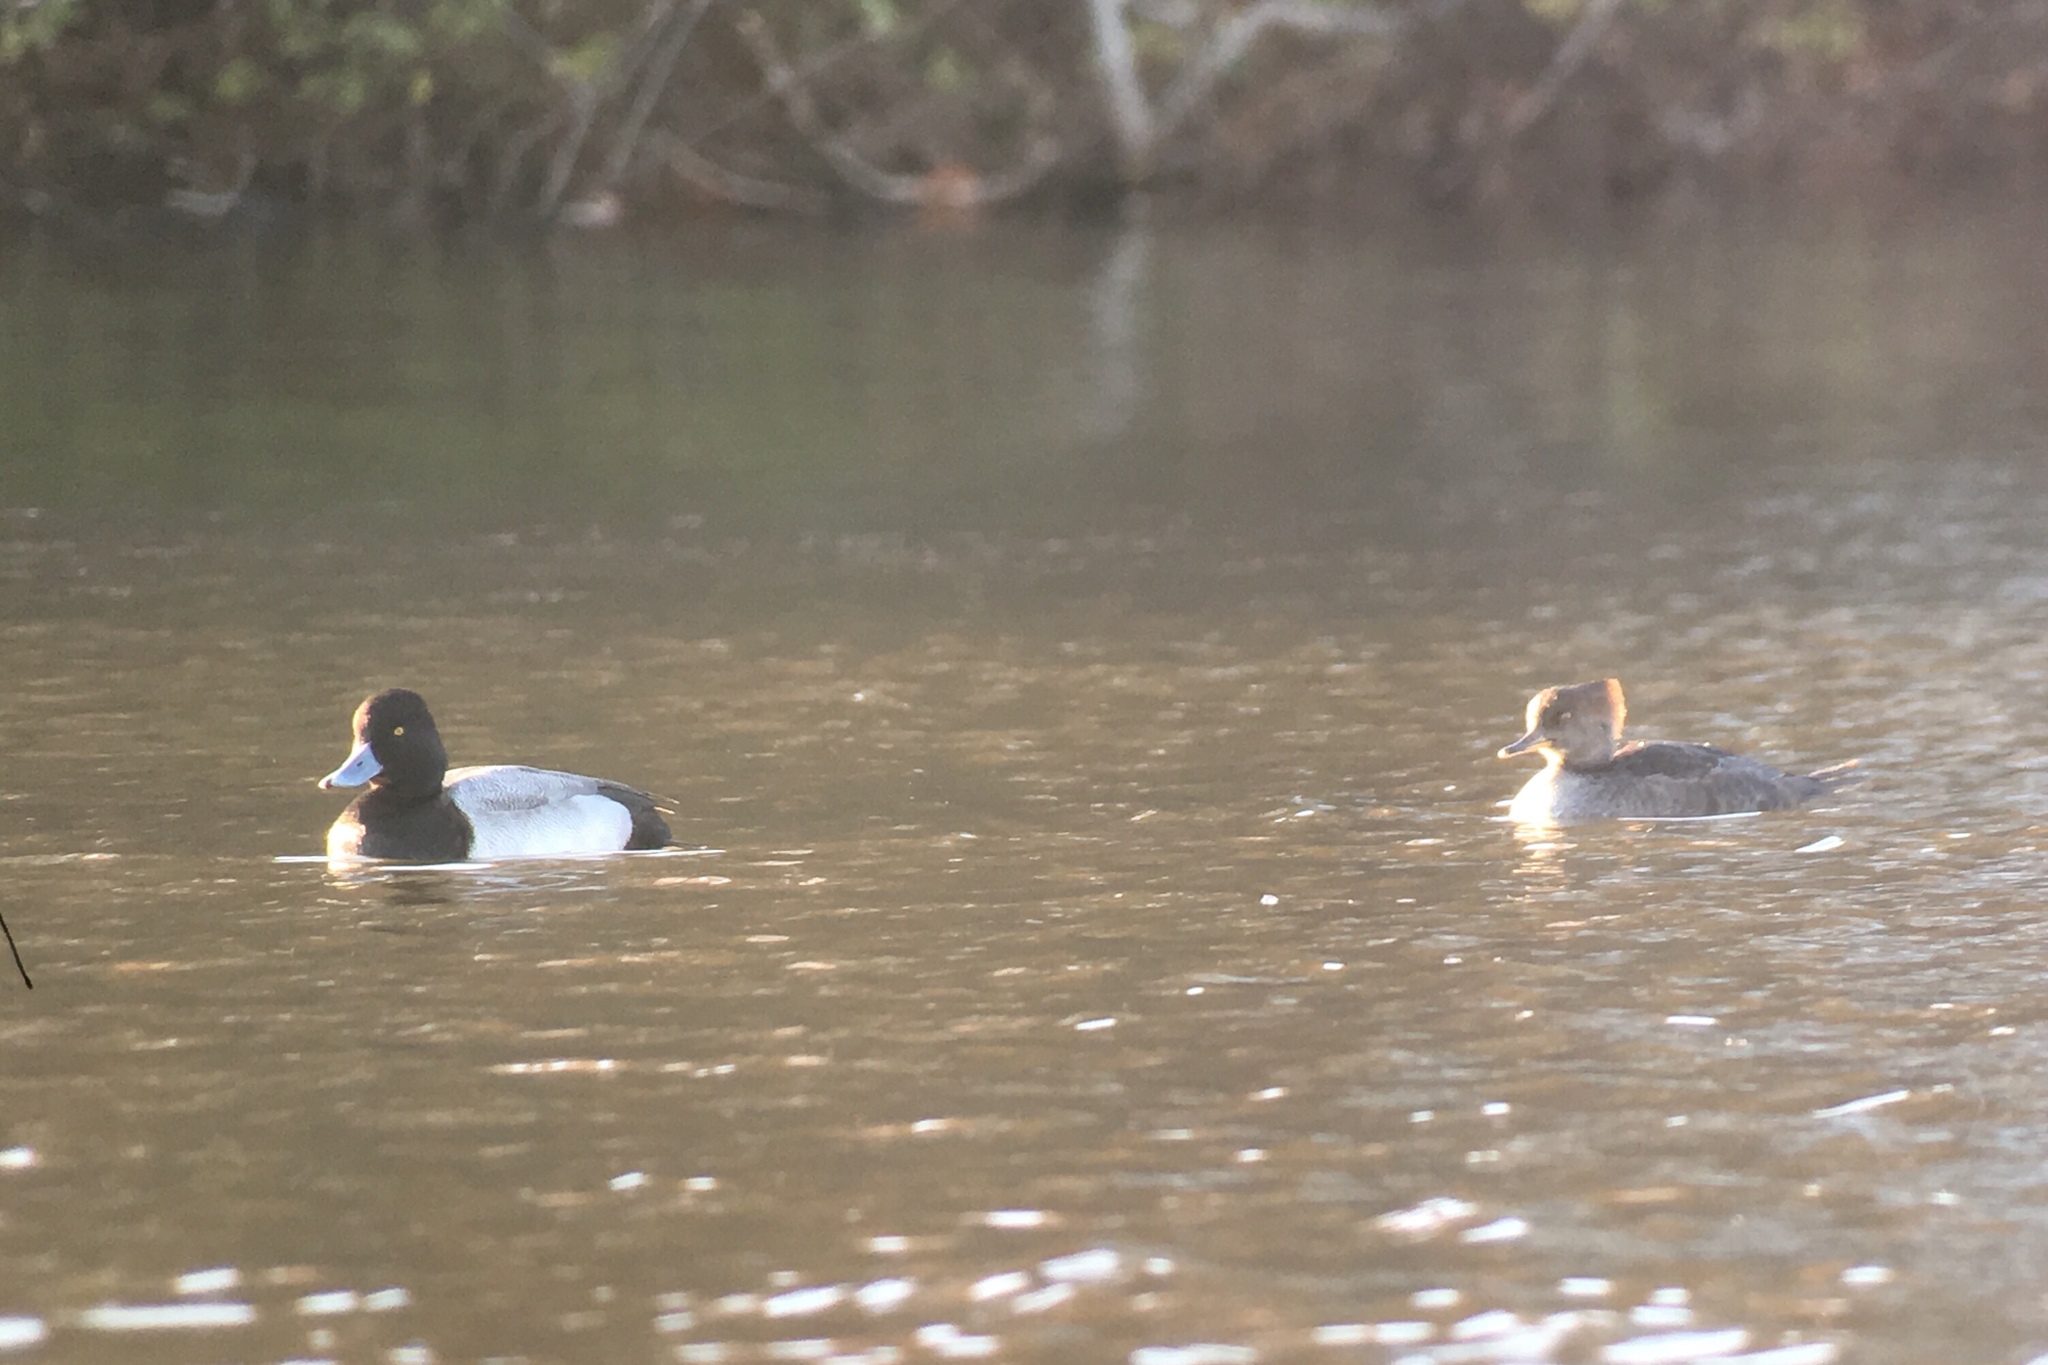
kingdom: Animalia
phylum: Chordata
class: Aves
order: Anseriformes
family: Anatidae
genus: Lophodytes
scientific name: Lophodytes cucullatus
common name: Hooded merganser
